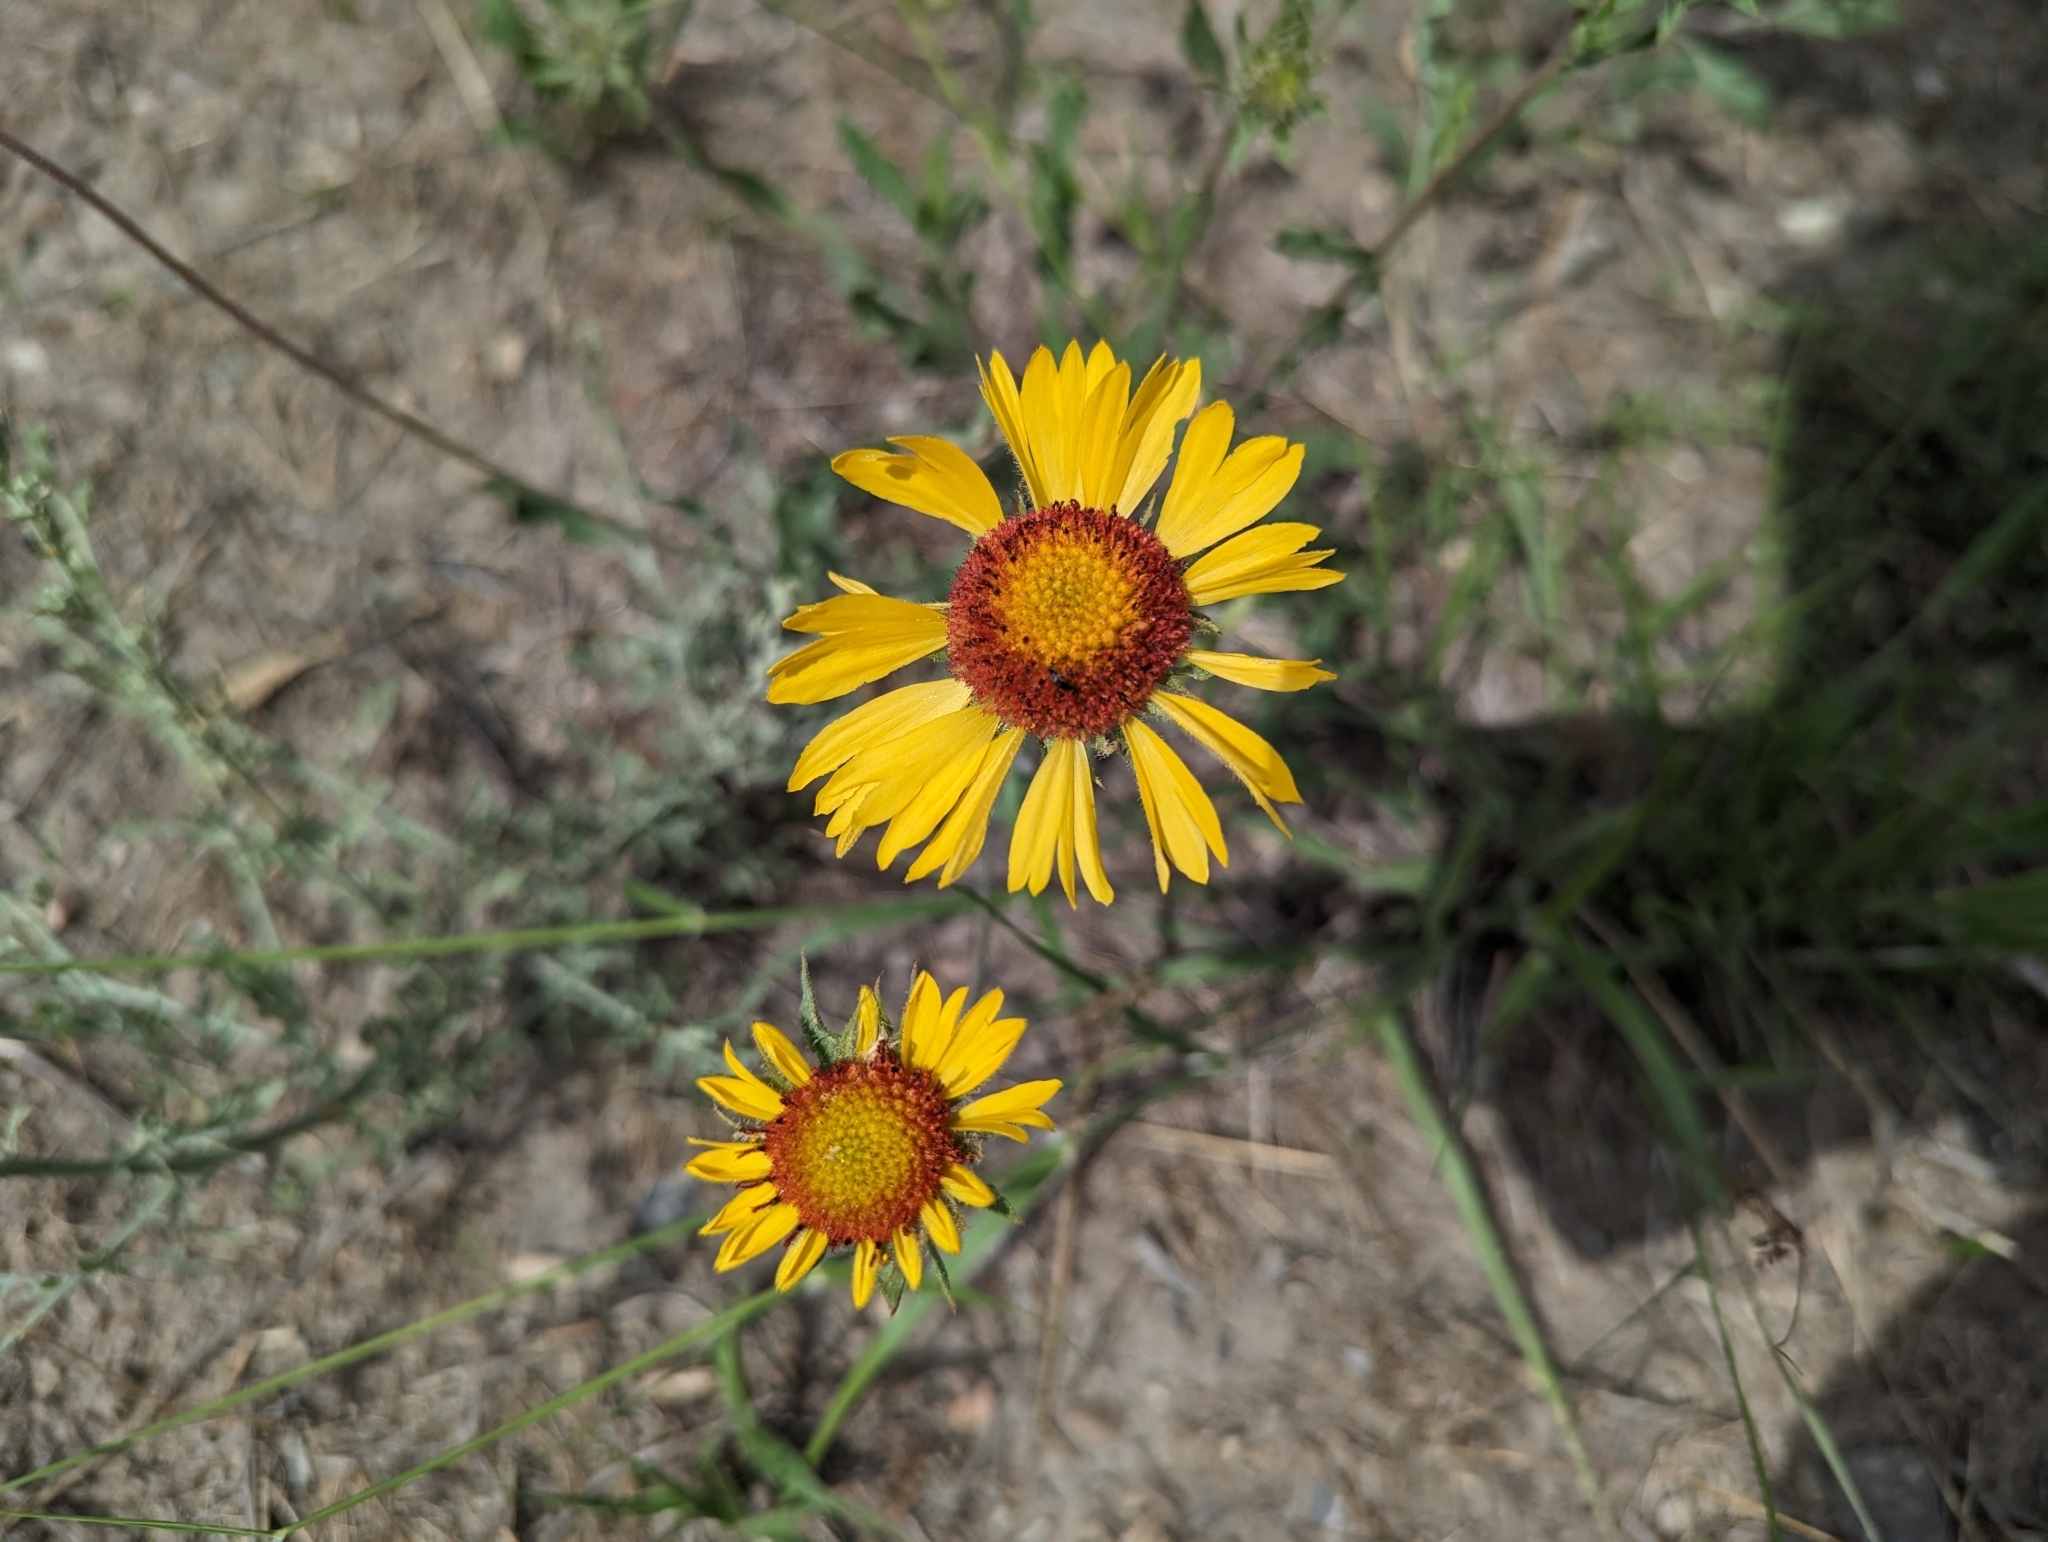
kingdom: Plantae
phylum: Tracheophyta
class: Magnoliopsida
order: Asterales
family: Asteraceae
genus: Gaillardia
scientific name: Gaillardia aristata
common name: Blanket-flower
